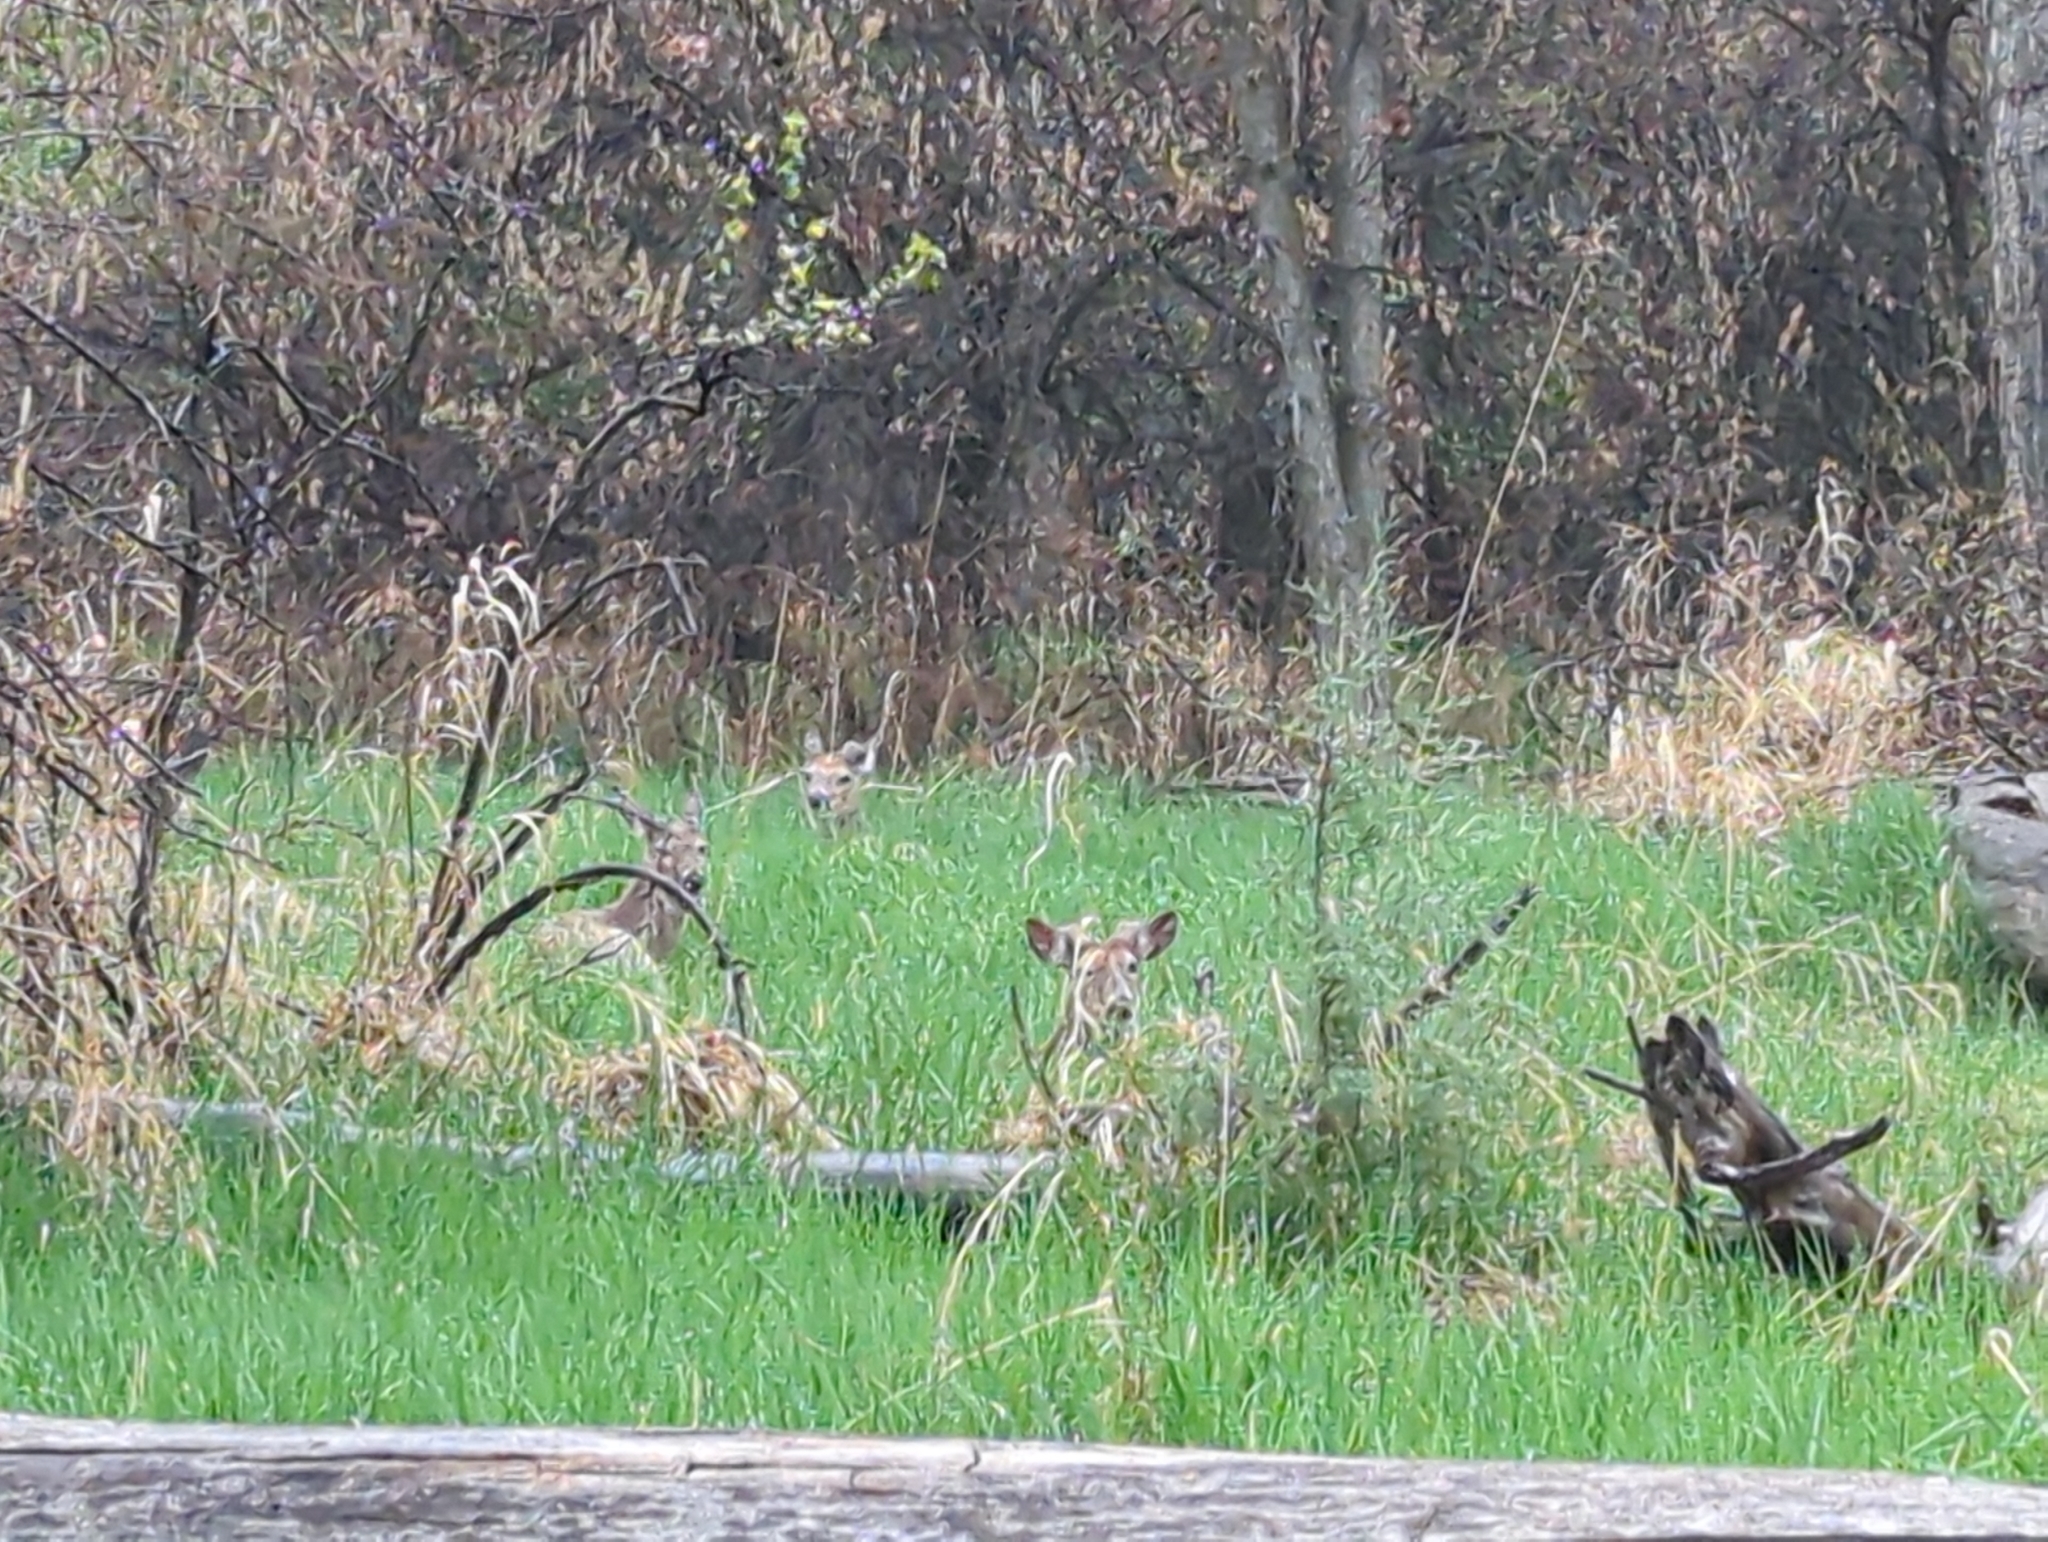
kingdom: Animalia
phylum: Chordata
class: Mammalia
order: Artiodactyla
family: Cervidae
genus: Odocoileus
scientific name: Odocoileus virginianus
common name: White-tailed deer
